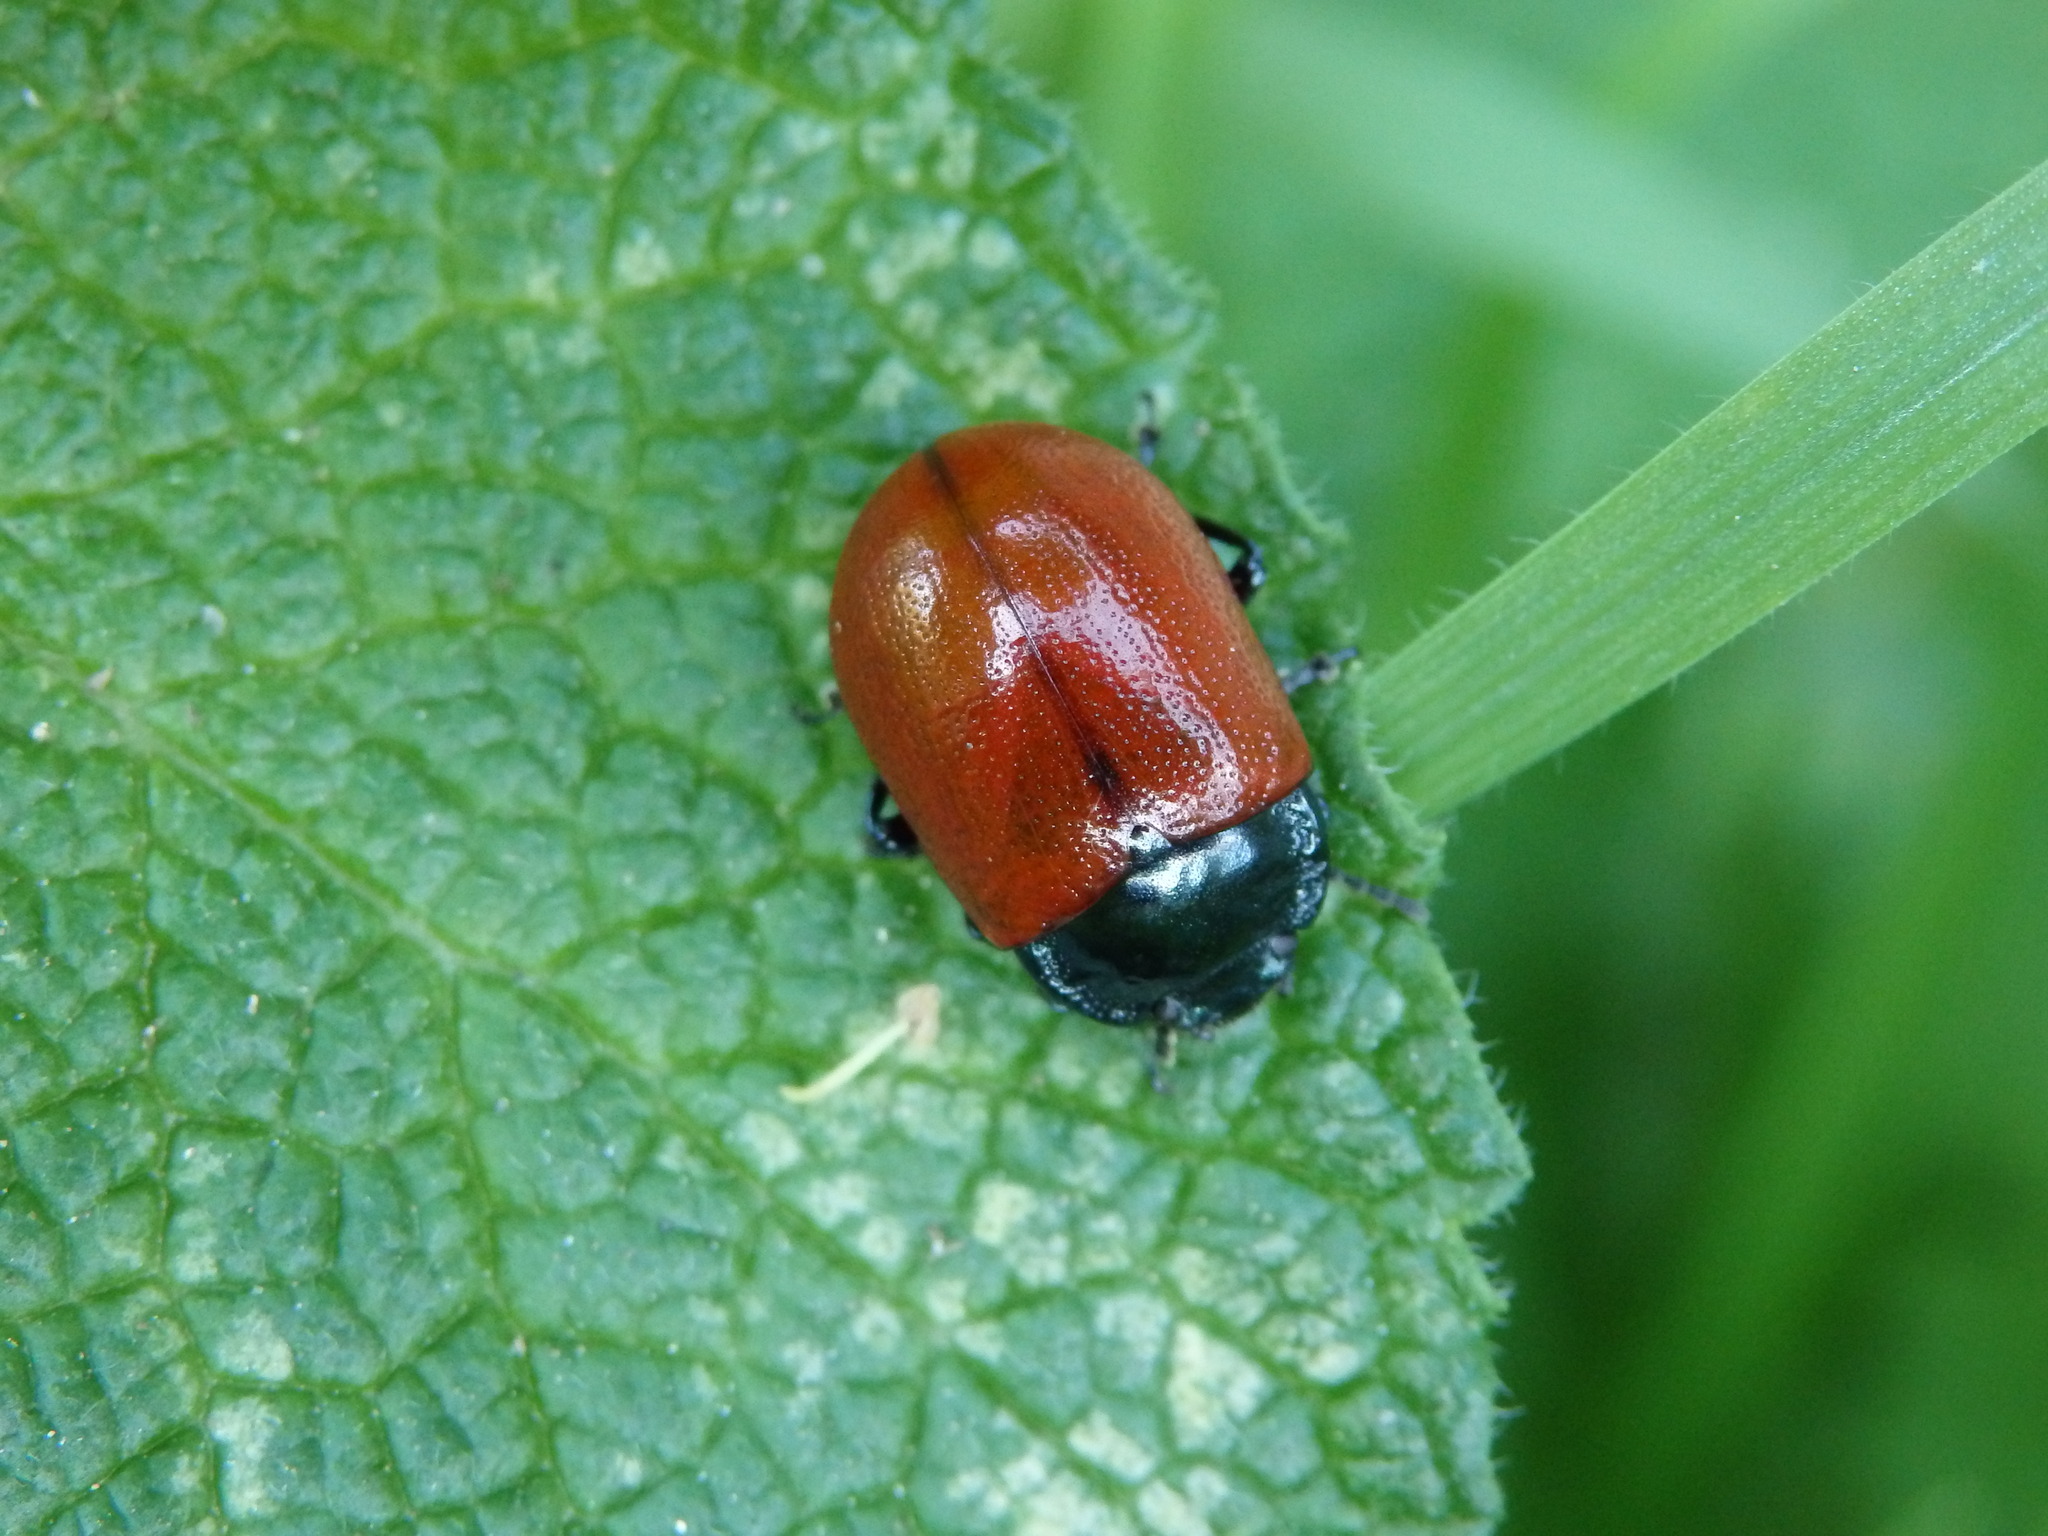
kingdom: Animalia
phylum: Arthropoda
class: Insecta
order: Coleoptera
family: Chrysomelidae
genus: Chrysolina
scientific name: Chrysolina grossa
